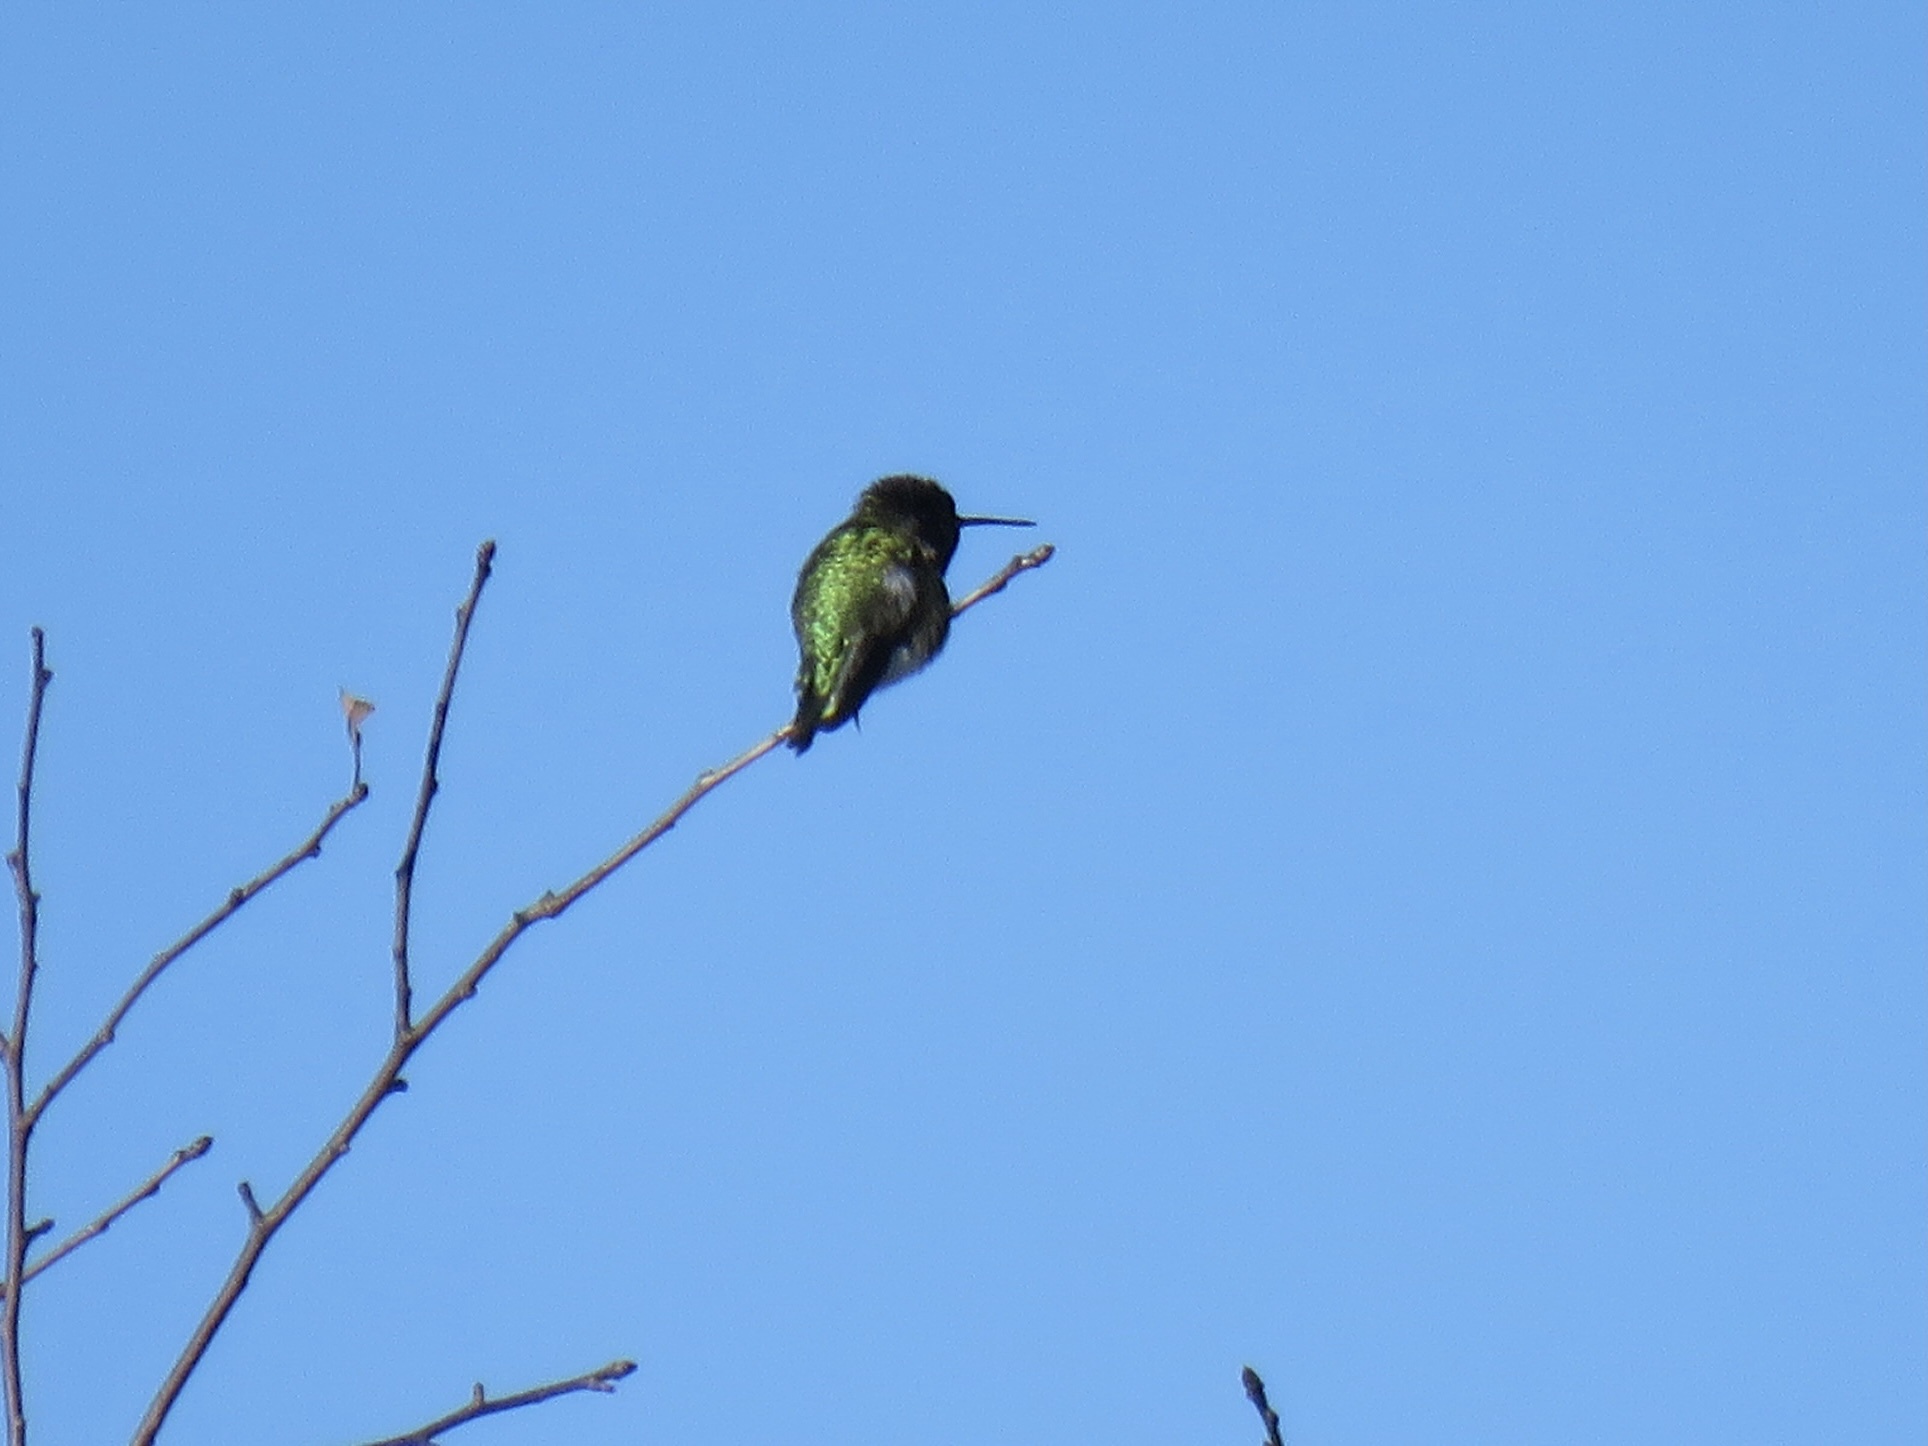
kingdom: Animalia
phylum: Chordata
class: Aves
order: Apodiformes
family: Trochilidae
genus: Calypte
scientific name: Calypte anna
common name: Anna's hummingbird
